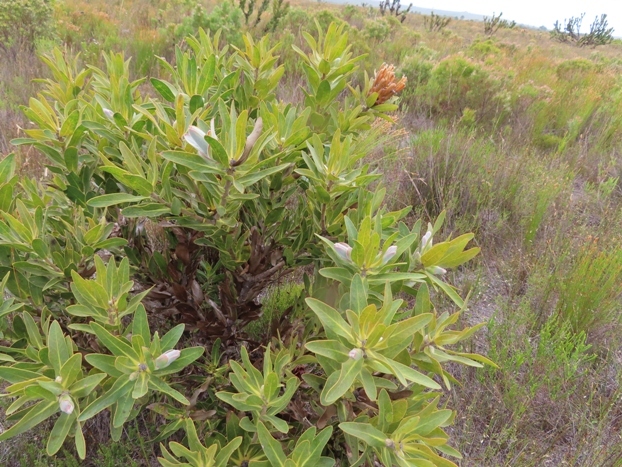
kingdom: Plantae
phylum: Tracheophyta
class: Magnoliopsida
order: Proteales
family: Proteaceae
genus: Protea
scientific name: Protea compacta
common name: Bot river protea
